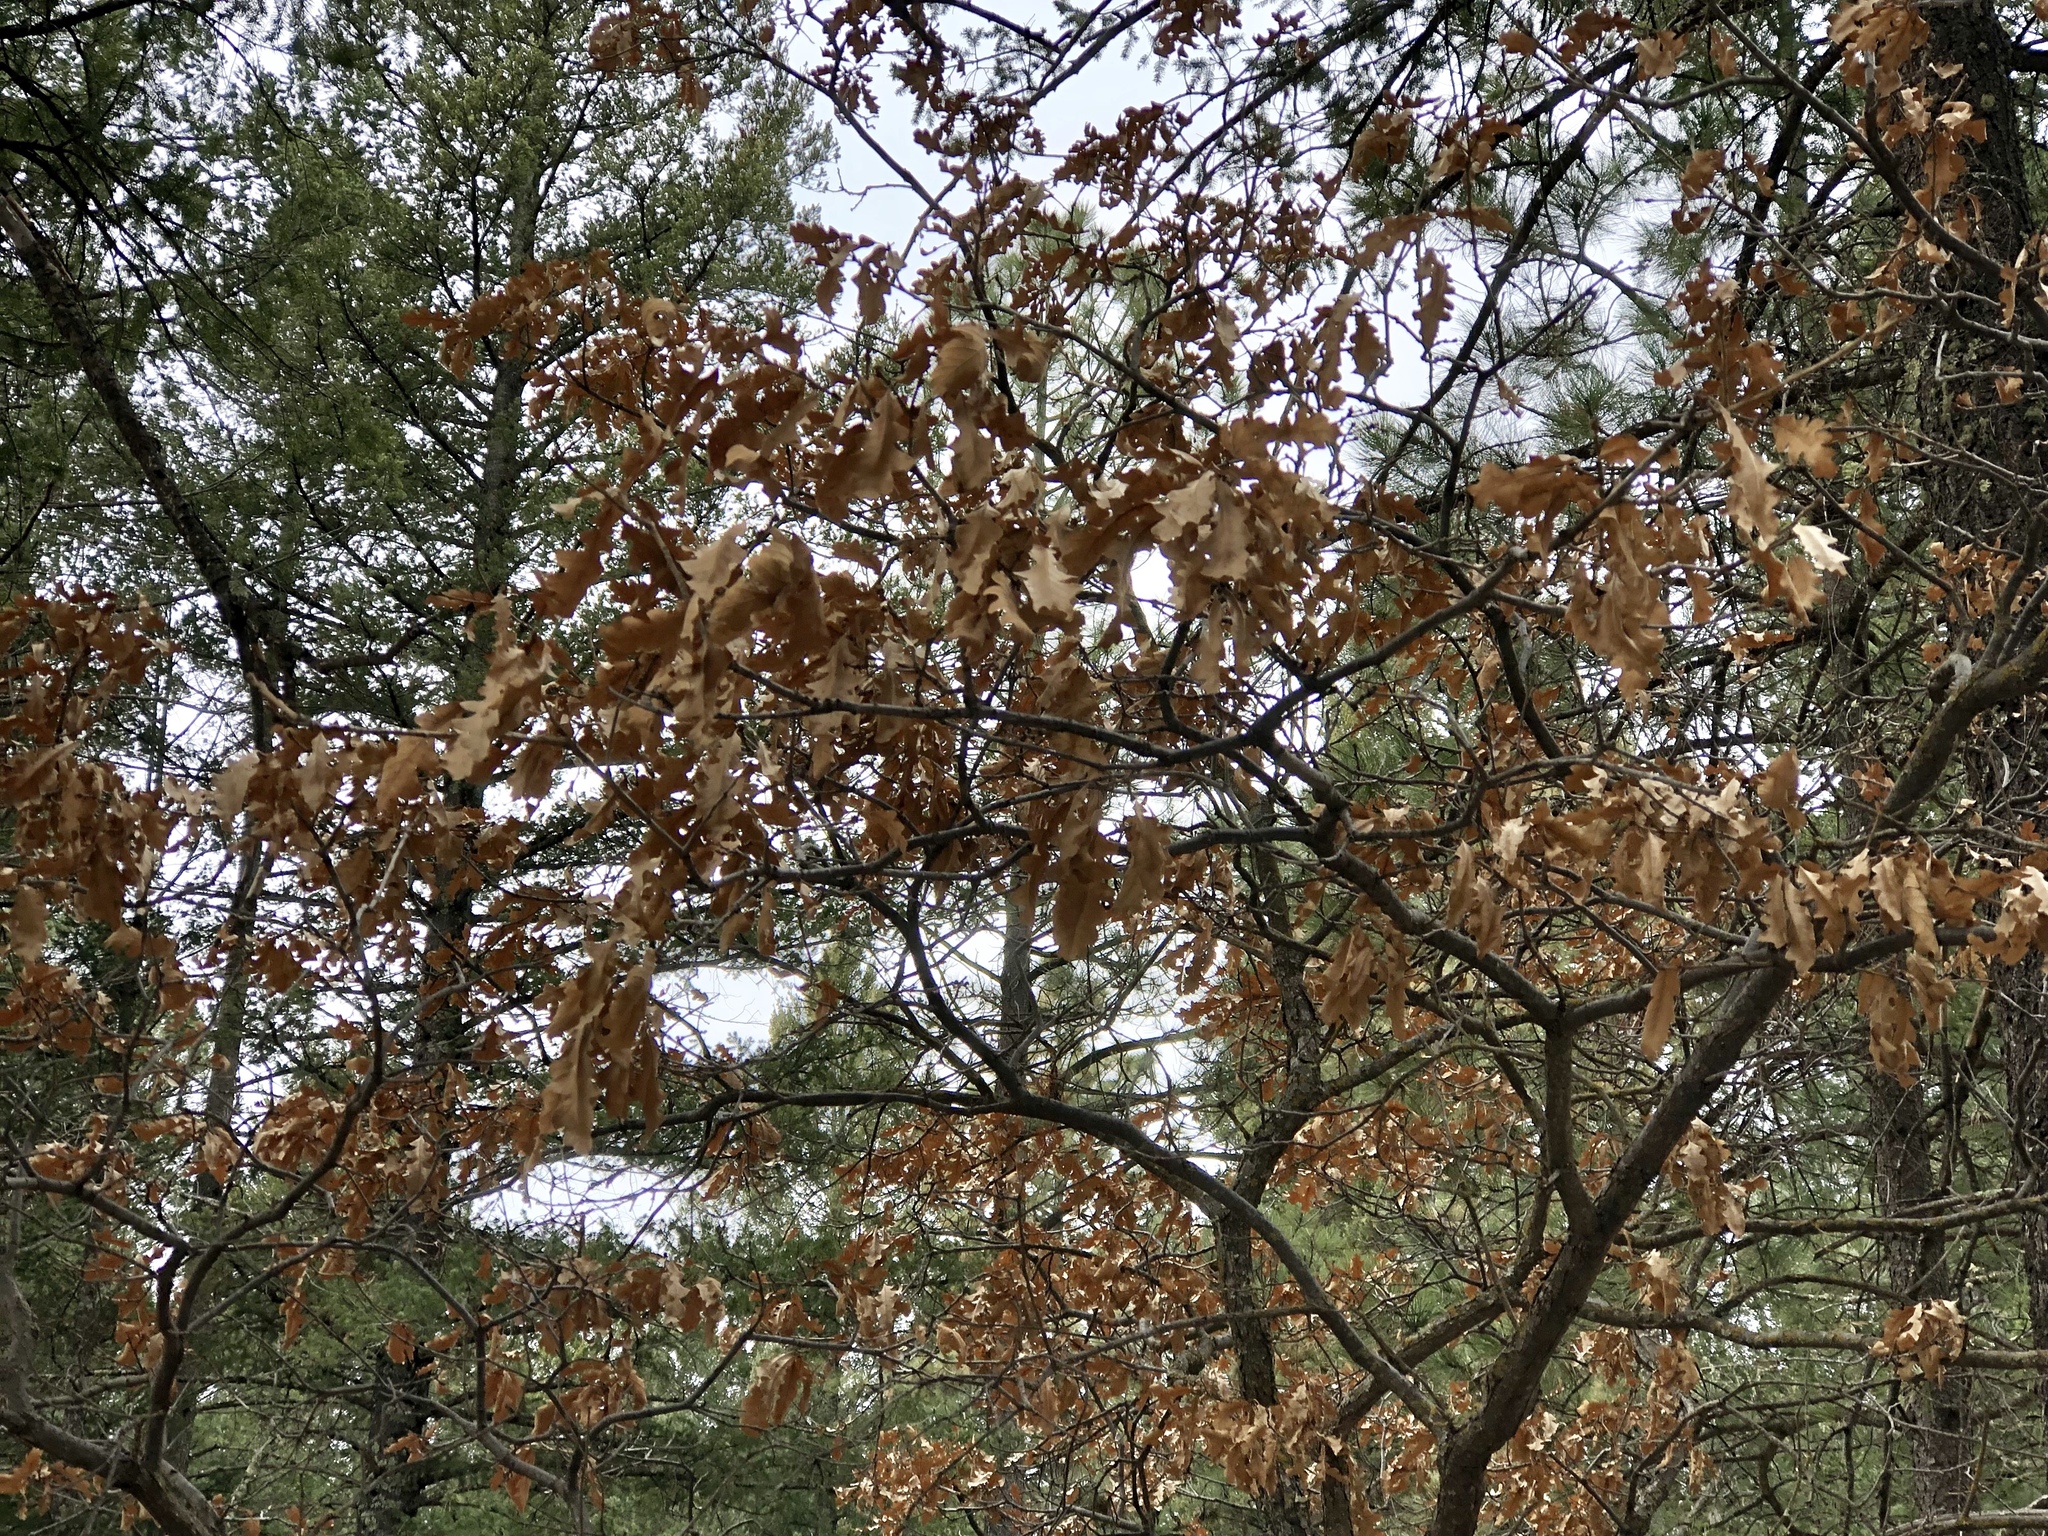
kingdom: Plantae
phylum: Tracheophyta
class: Magnoliopsida
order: Fagales
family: Fagaceae
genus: Quercus
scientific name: Quercus gambelii
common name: Gambel oak
